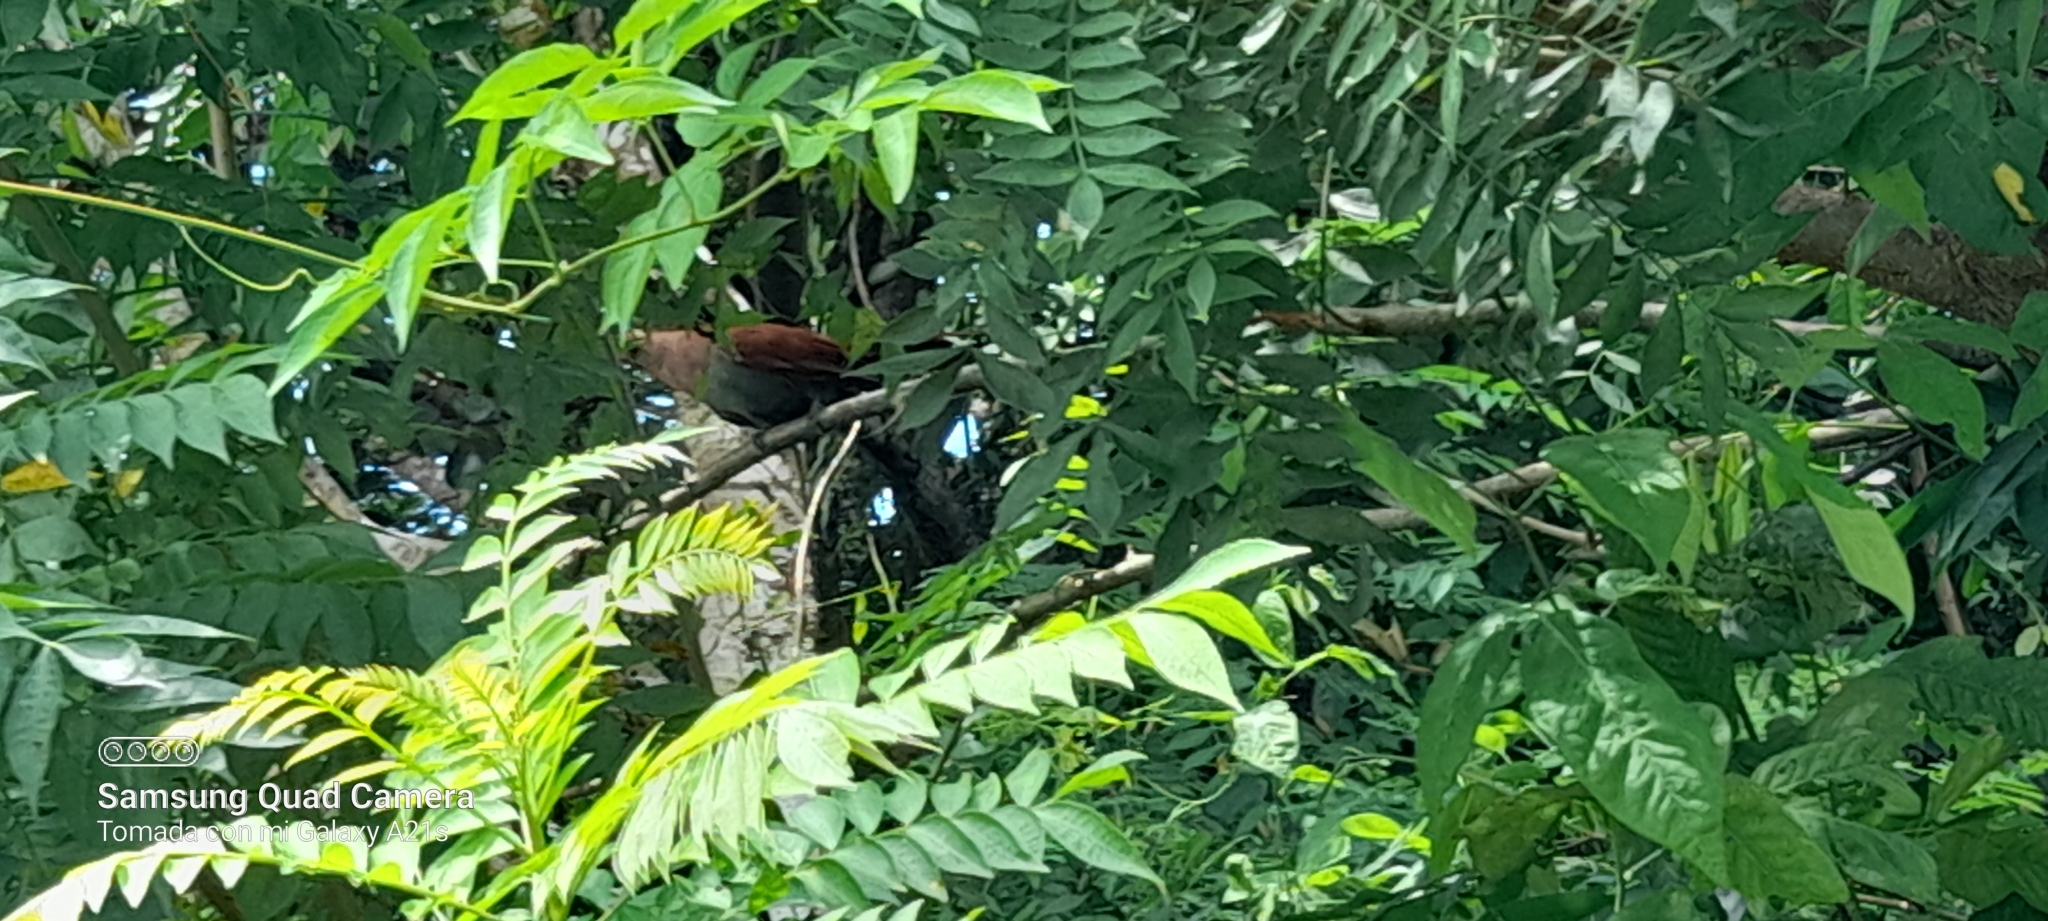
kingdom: Animalia
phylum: Chordata
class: Aves
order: Cuculiformes
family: Cuculidae
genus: Piaya
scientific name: Piaya cayana
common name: Squirrel cuckoo
